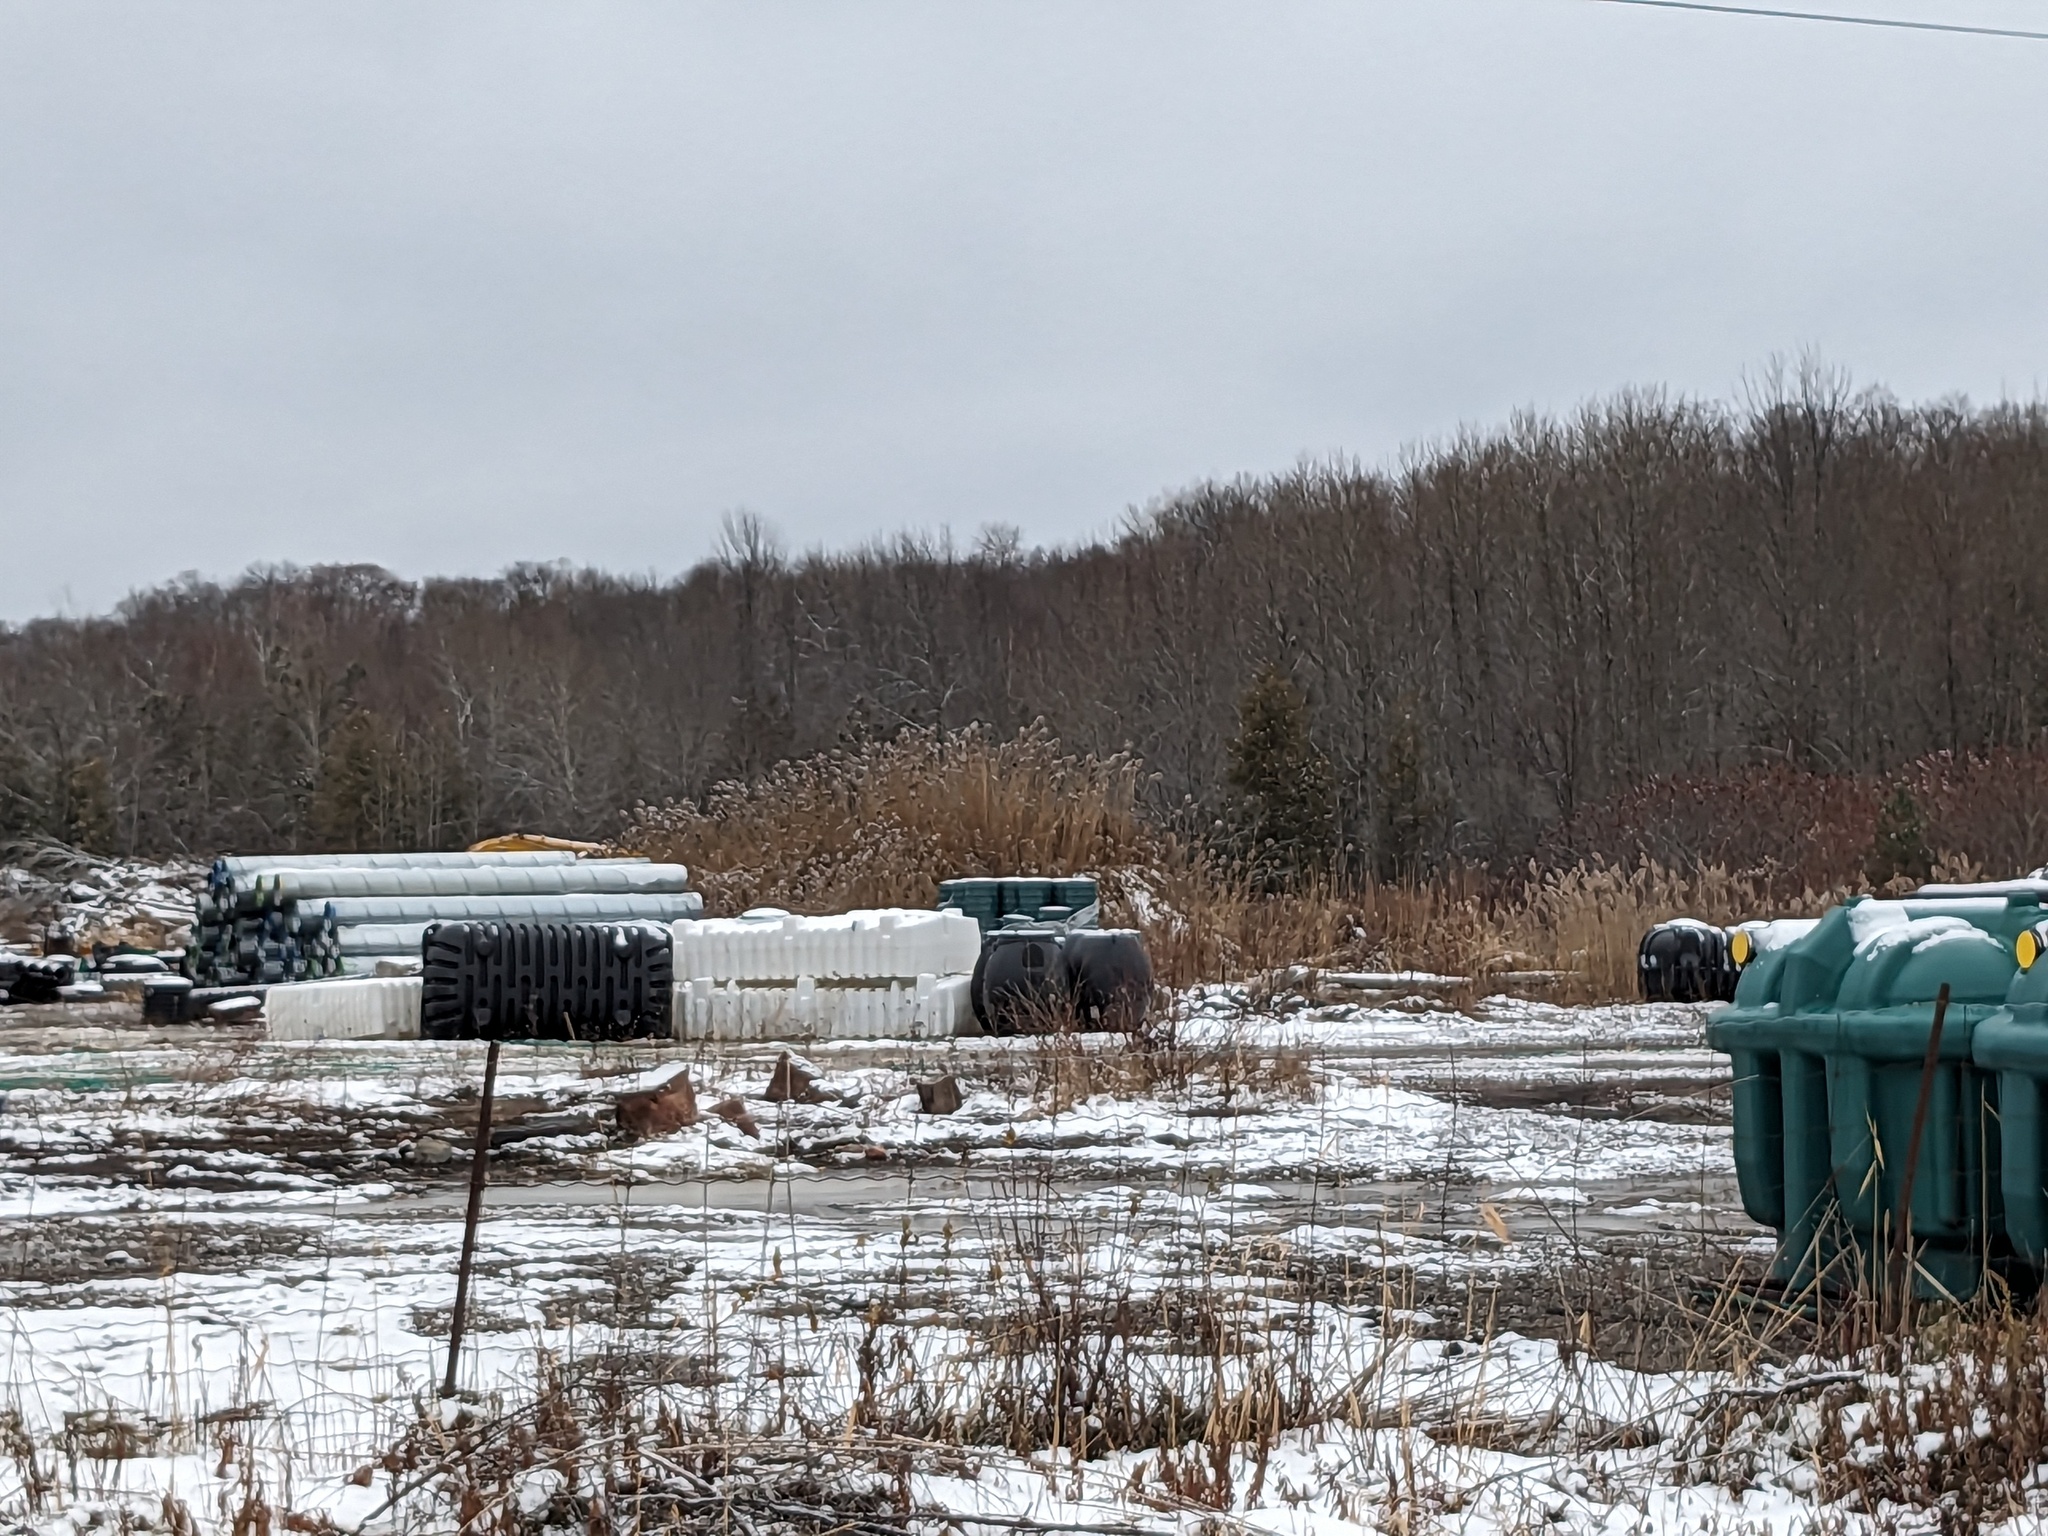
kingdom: Plantae
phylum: Tracheophyta
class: Liliopsida
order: Poales
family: Poaceae
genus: Phragmites
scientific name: Phragmites australis
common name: Common reed
